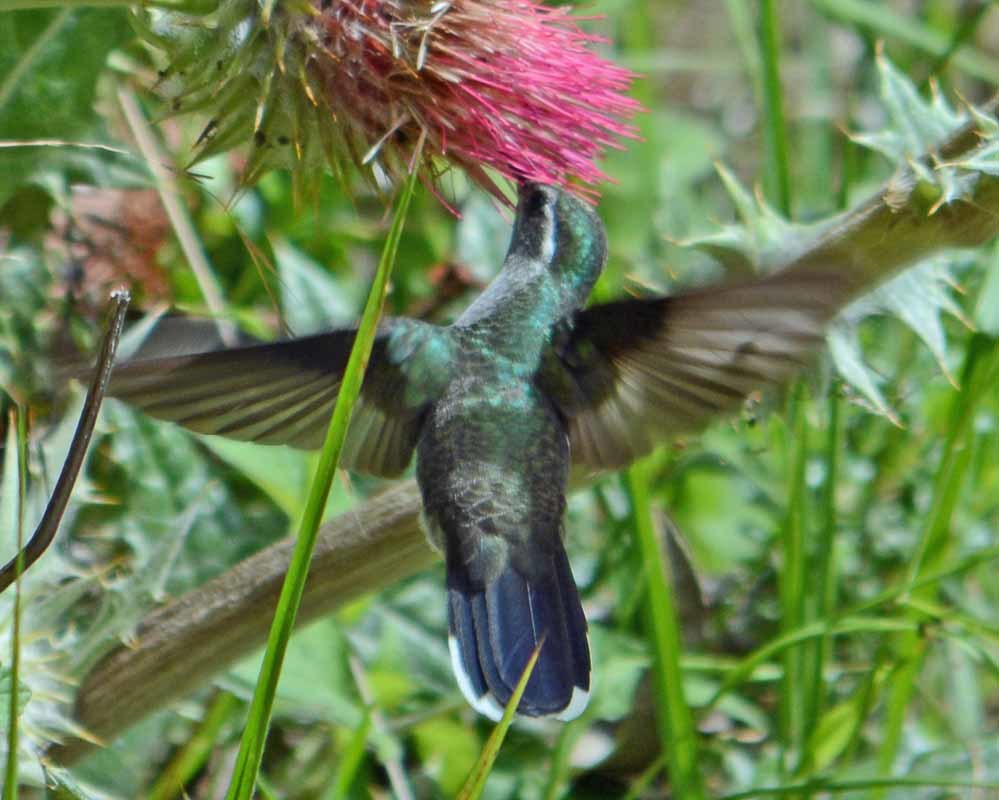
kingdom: Animalia
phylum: Chordata
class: Aves
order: Apodiformes
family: Trochilidae
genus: Lampornis
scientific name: Lampornis clemenciae
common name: Blue-throated mountaingem
